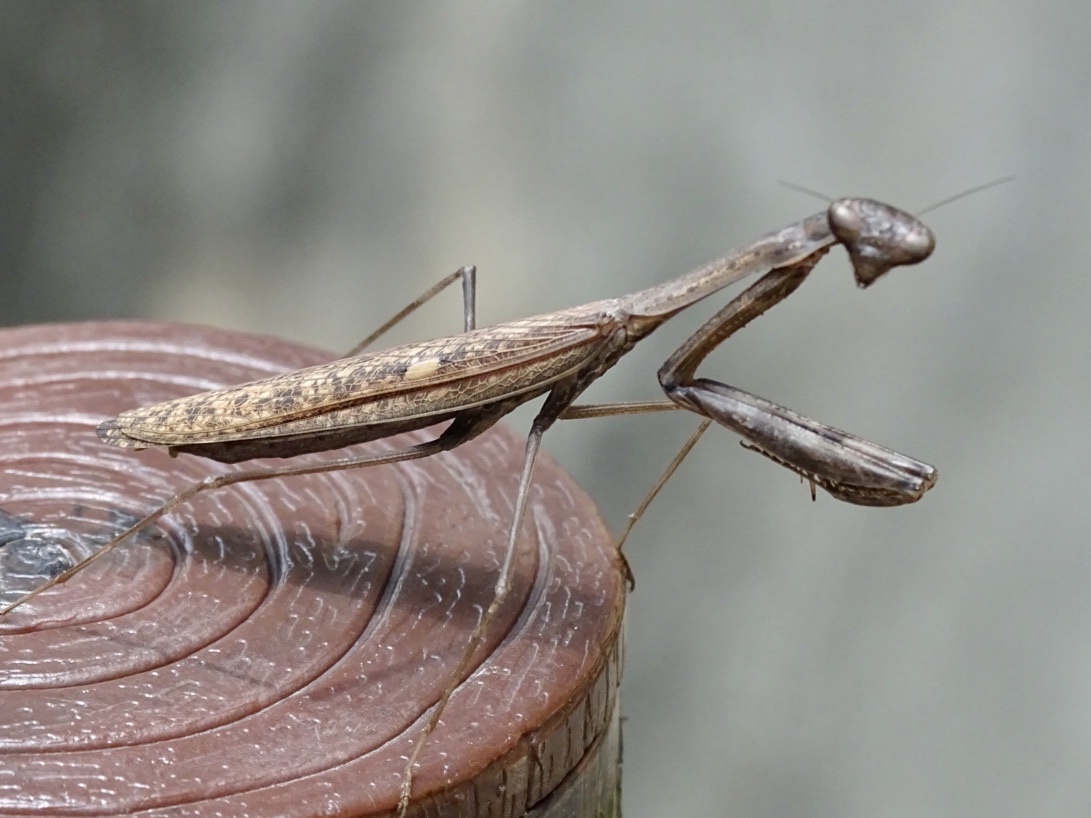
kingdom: Animalia
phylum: Arthropoda
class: Insecta
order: Mantodea
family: Mantidae
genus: Statilia
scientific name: Statilia maculata
